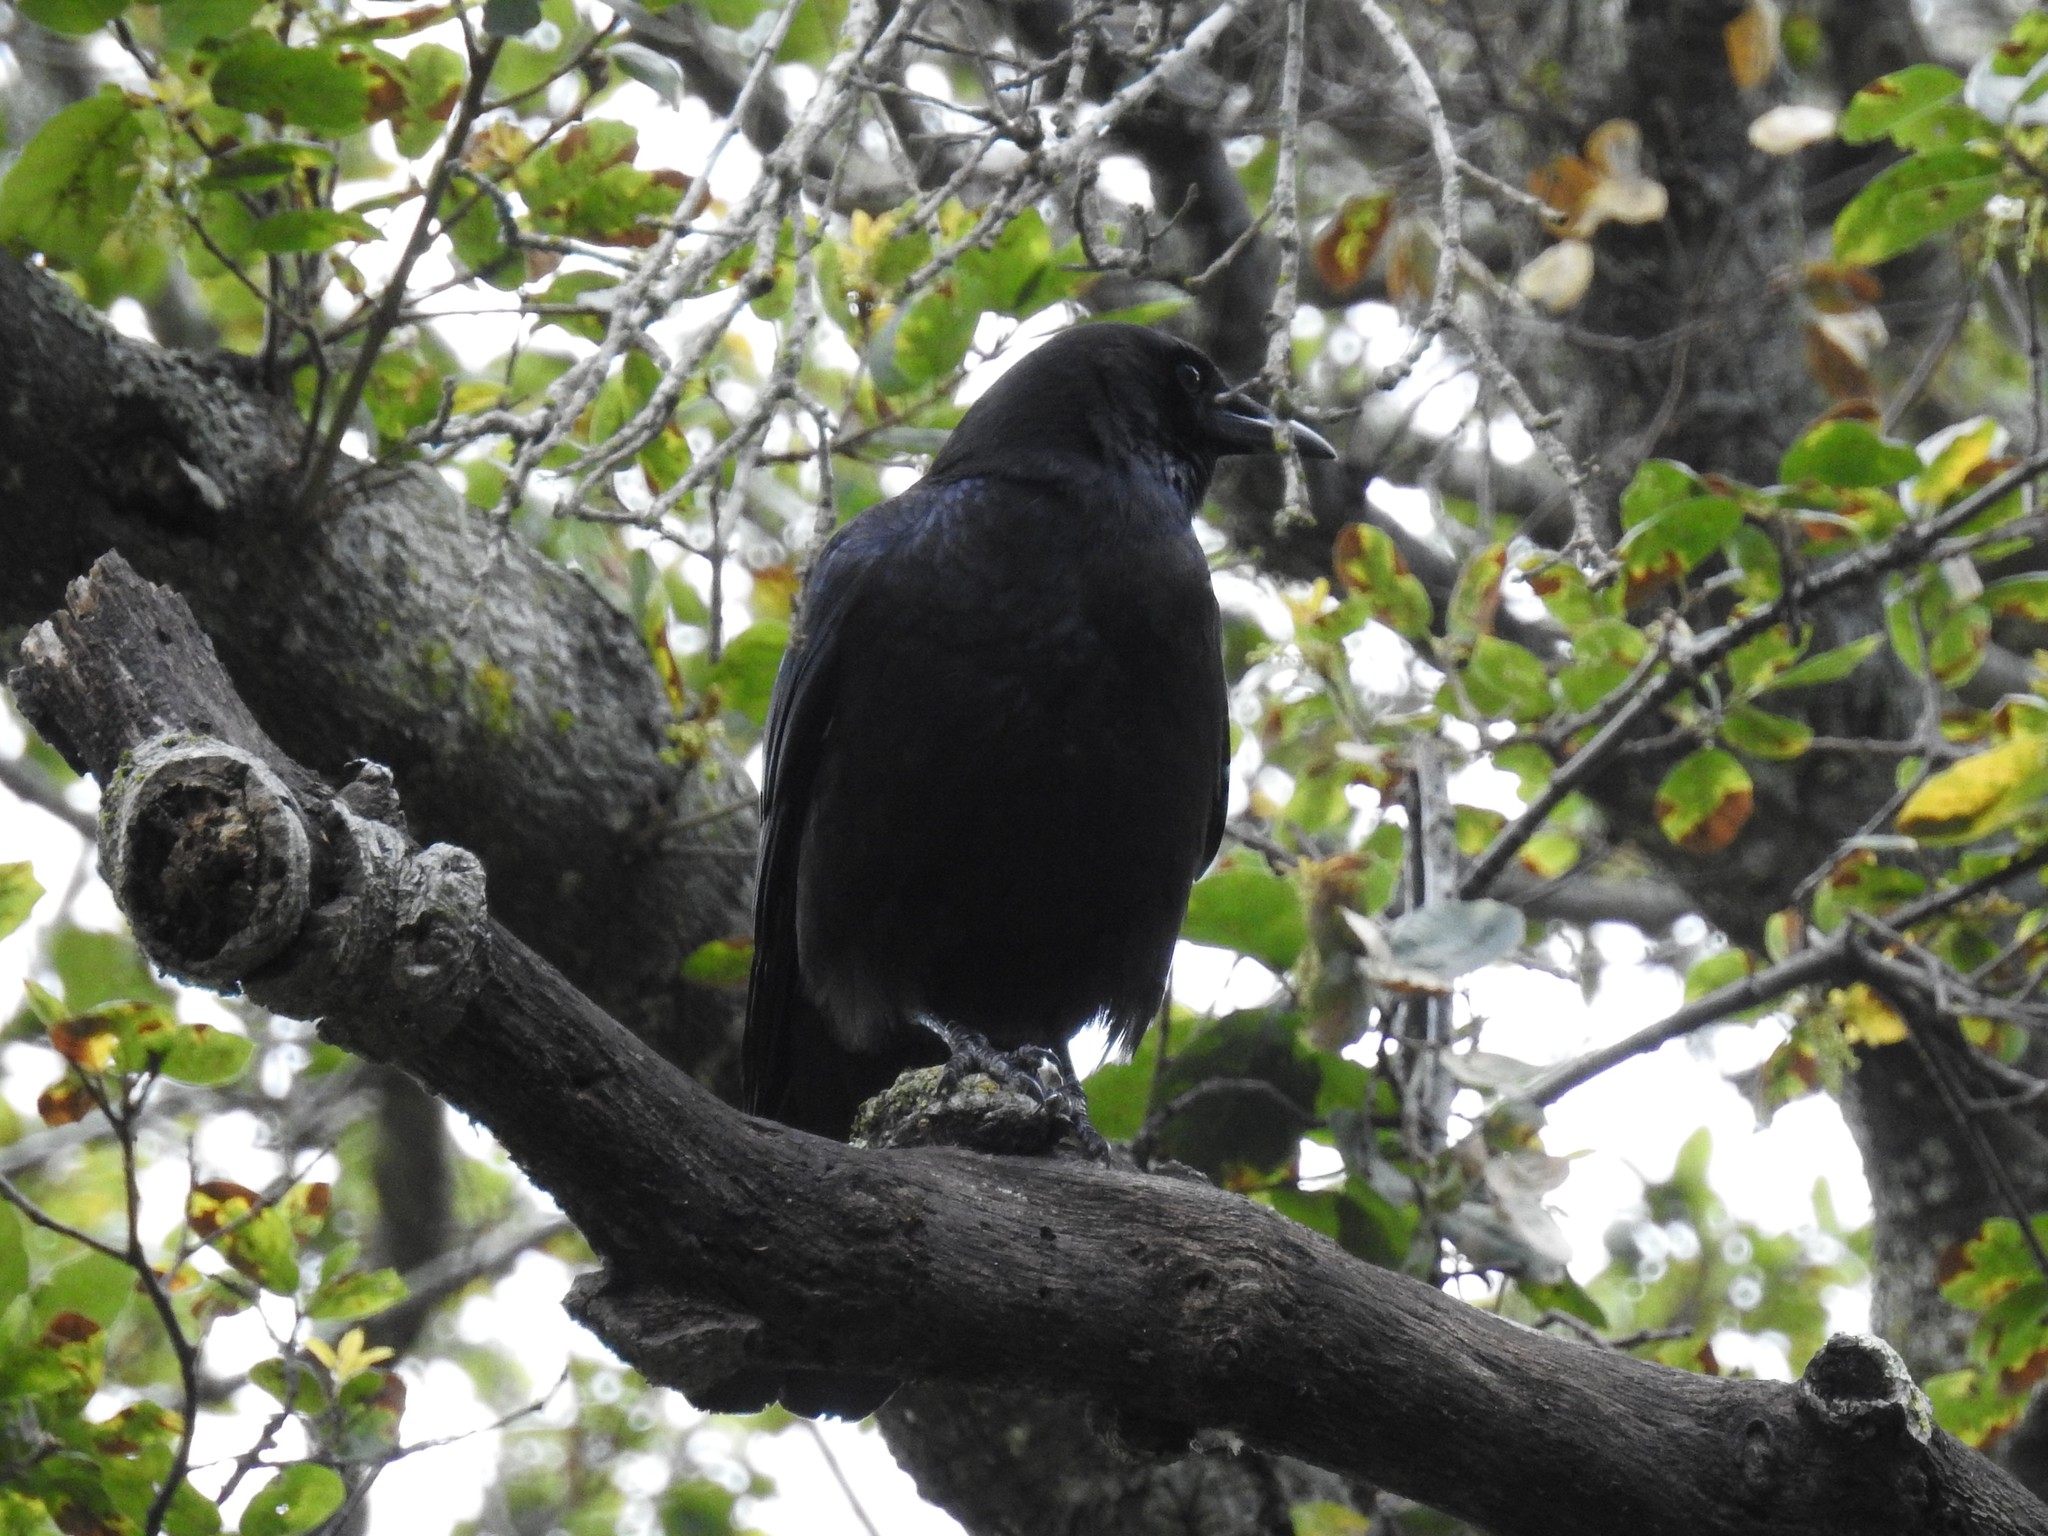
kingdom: Animalia
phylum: Chordata
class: Aves
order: Passeriformes
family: Corvidae
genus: Corvus
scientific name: Corvus brachyrhynchos
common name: American crow
